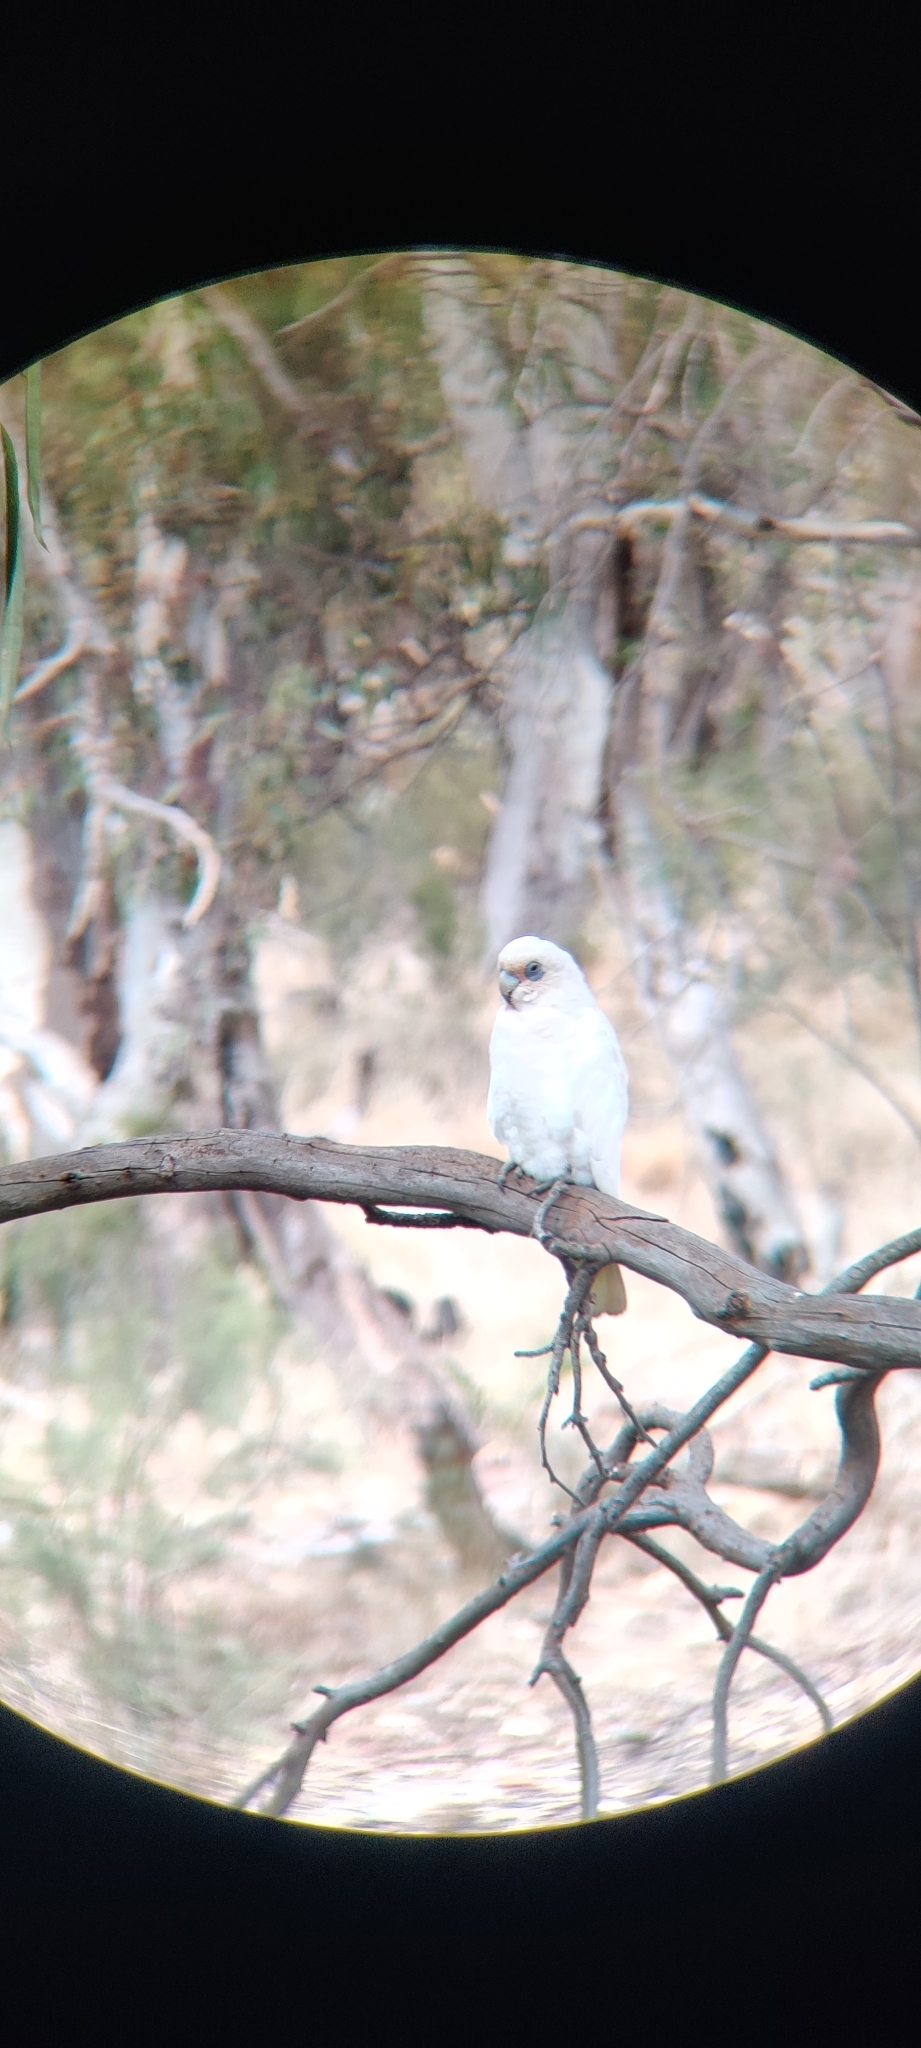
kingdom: Animalia
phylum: Chordata
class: Aves
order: Psittaciformes
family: Psittacidae
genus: Cacatua
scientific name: Cacatua sanguinea
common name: Little corella
